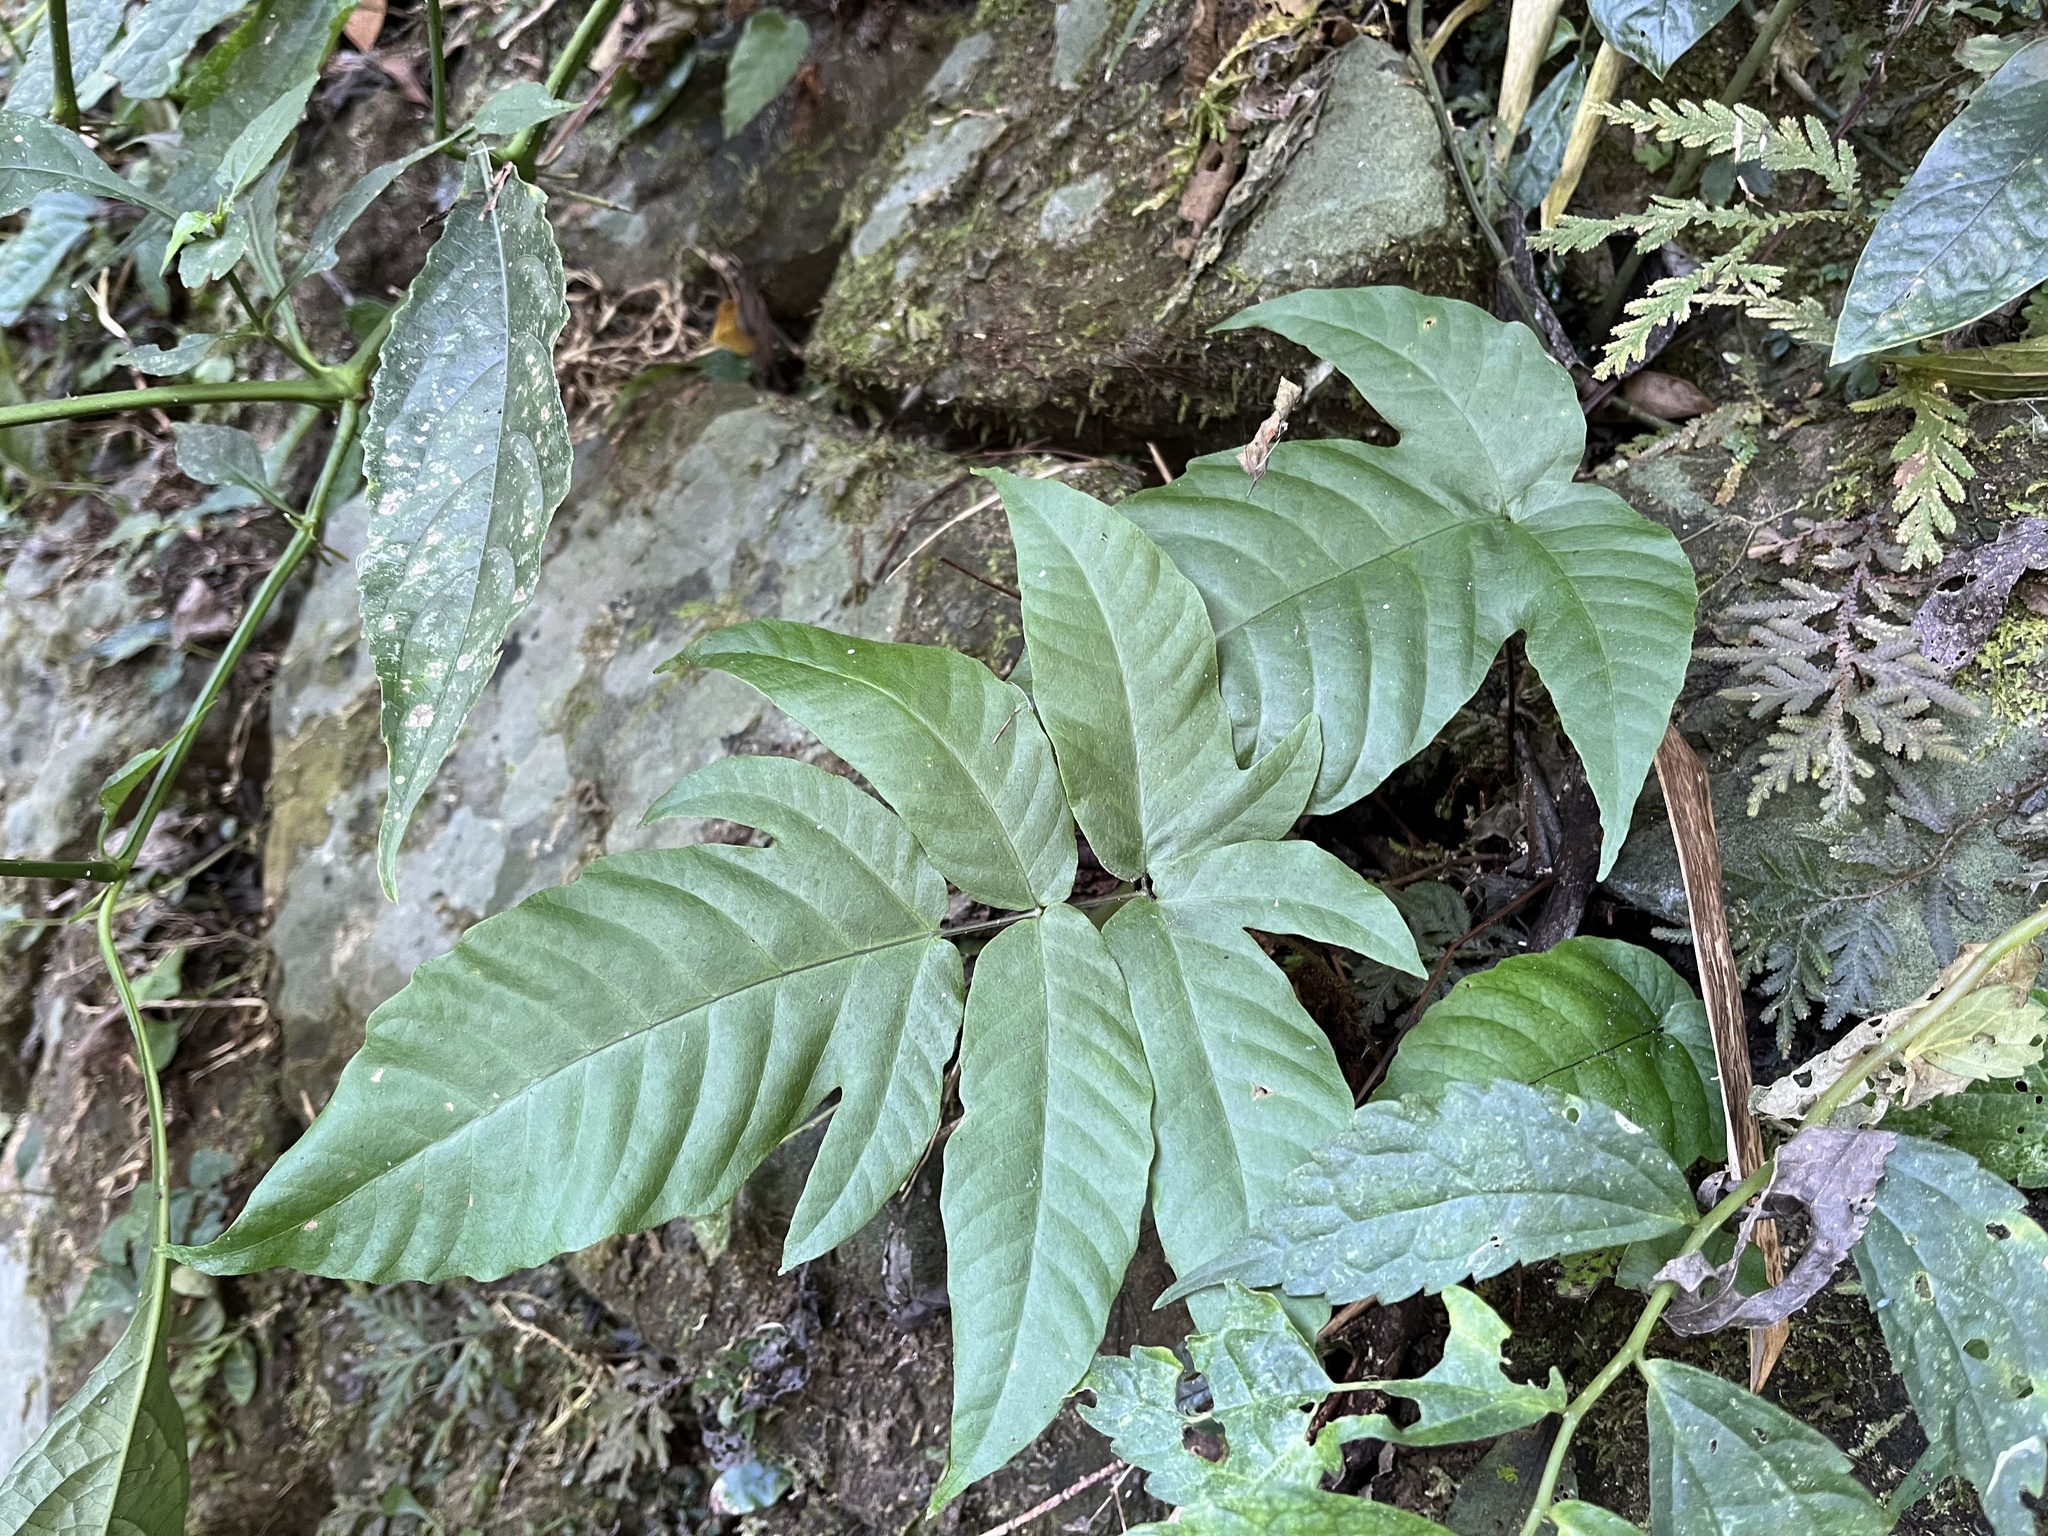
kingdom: Plantae
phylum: Tracheophyta
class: Polypodiopsida
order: Polypodiales
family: Tectariaceae
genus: Tectaria
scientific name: Tectaria subtriphylla
